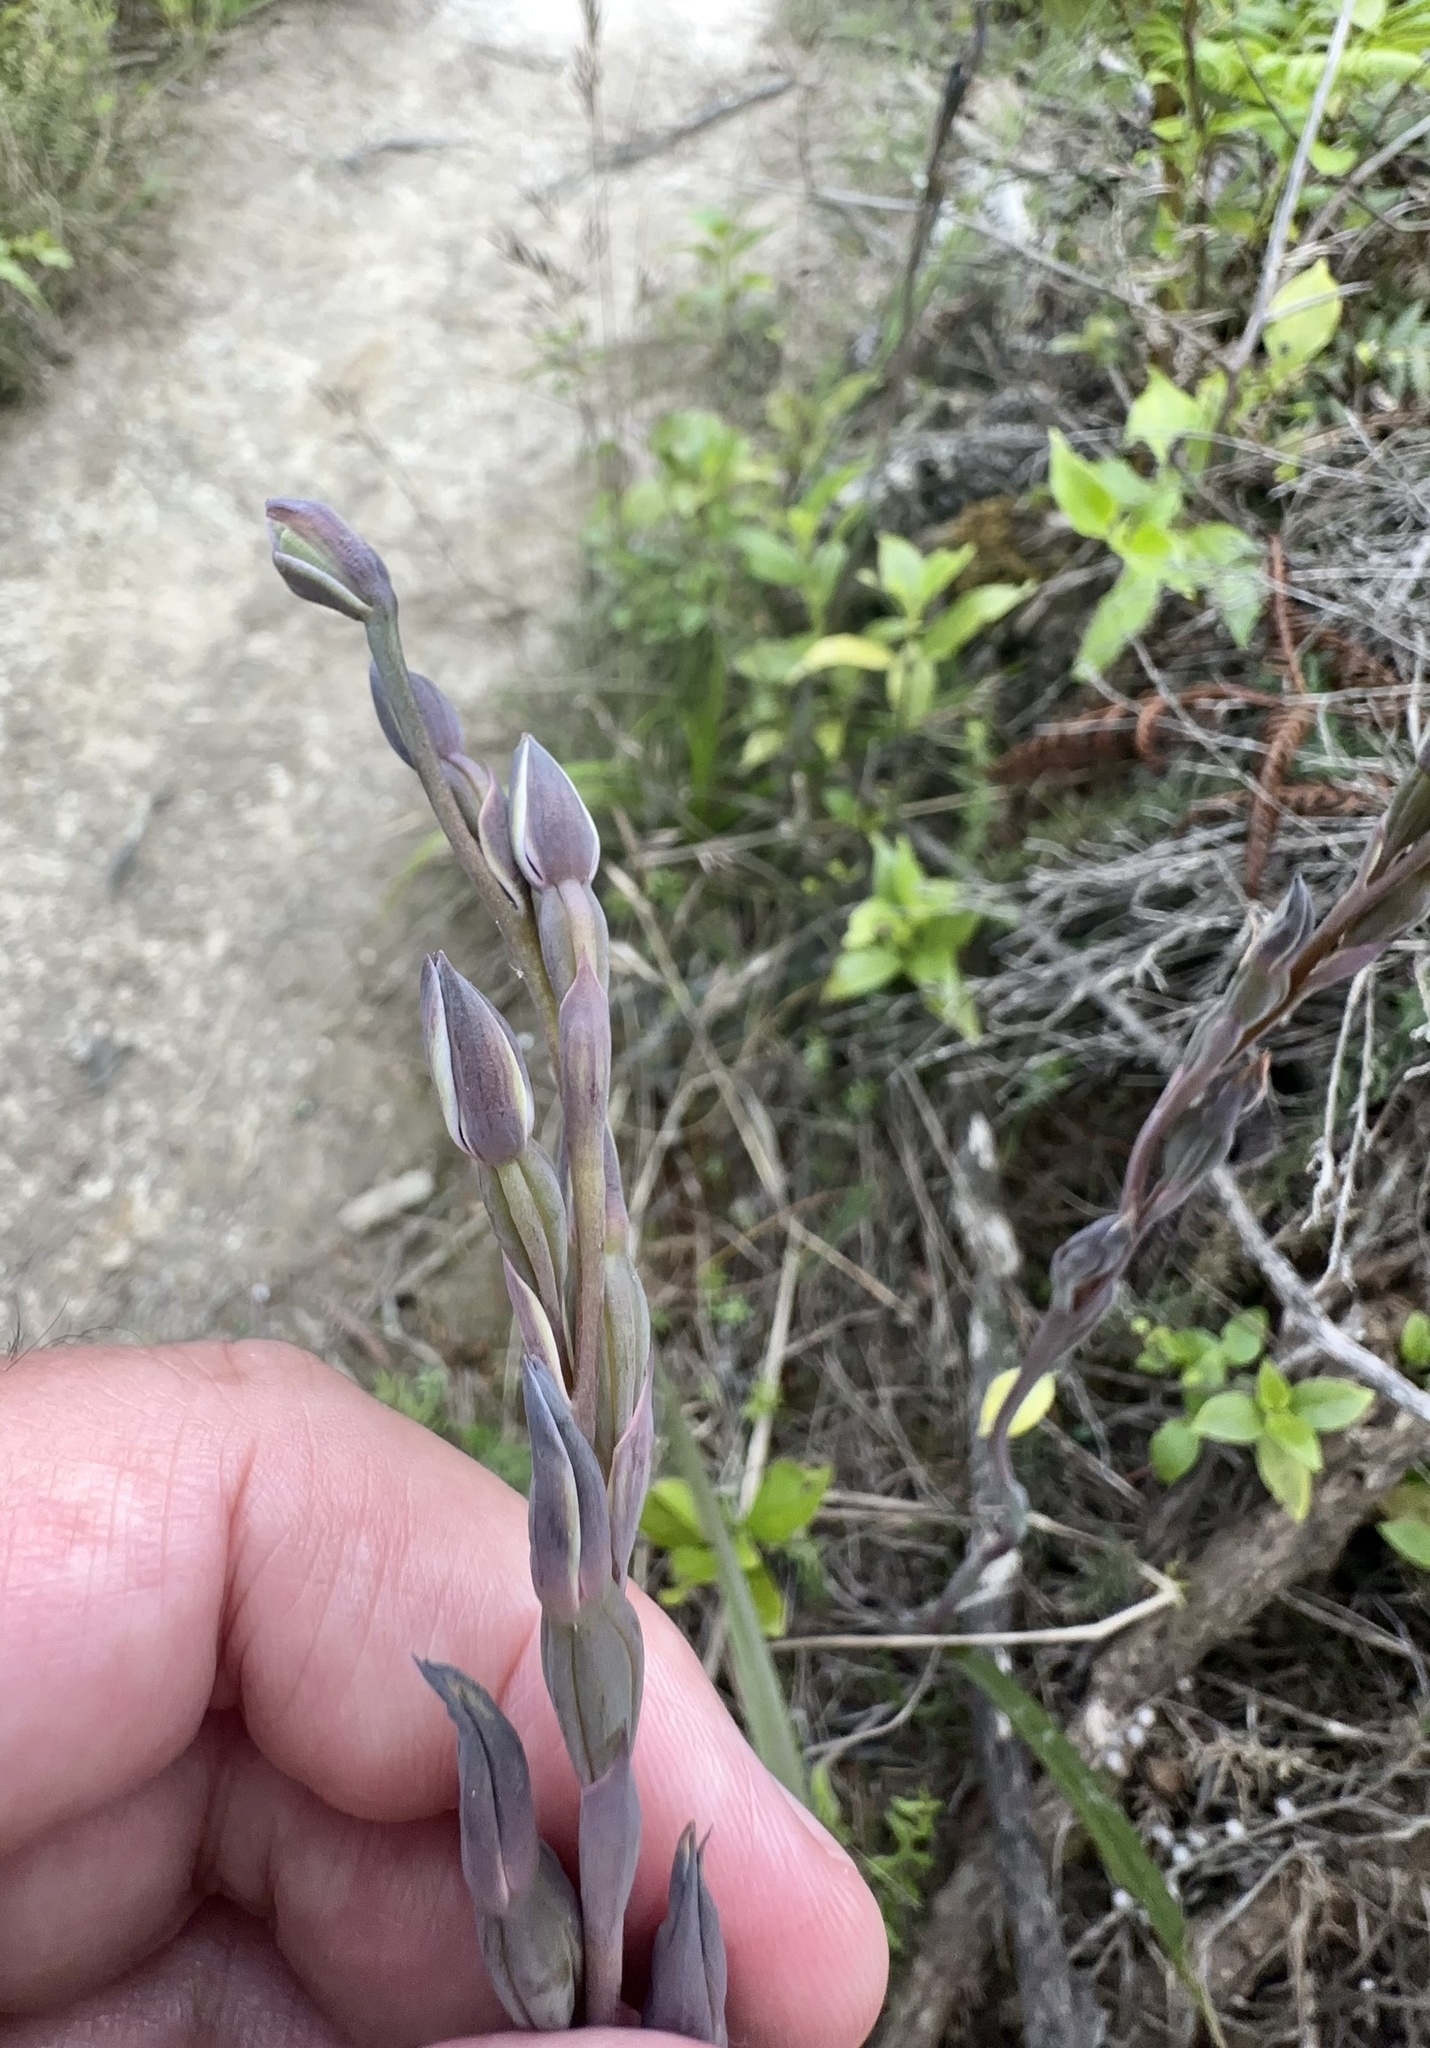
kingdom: Plantae
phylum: Tracheophyta
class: Liliopsida
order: Asparagales
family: Orchidaceae
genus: Thelymitra
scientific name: Thelymitra hatchii
